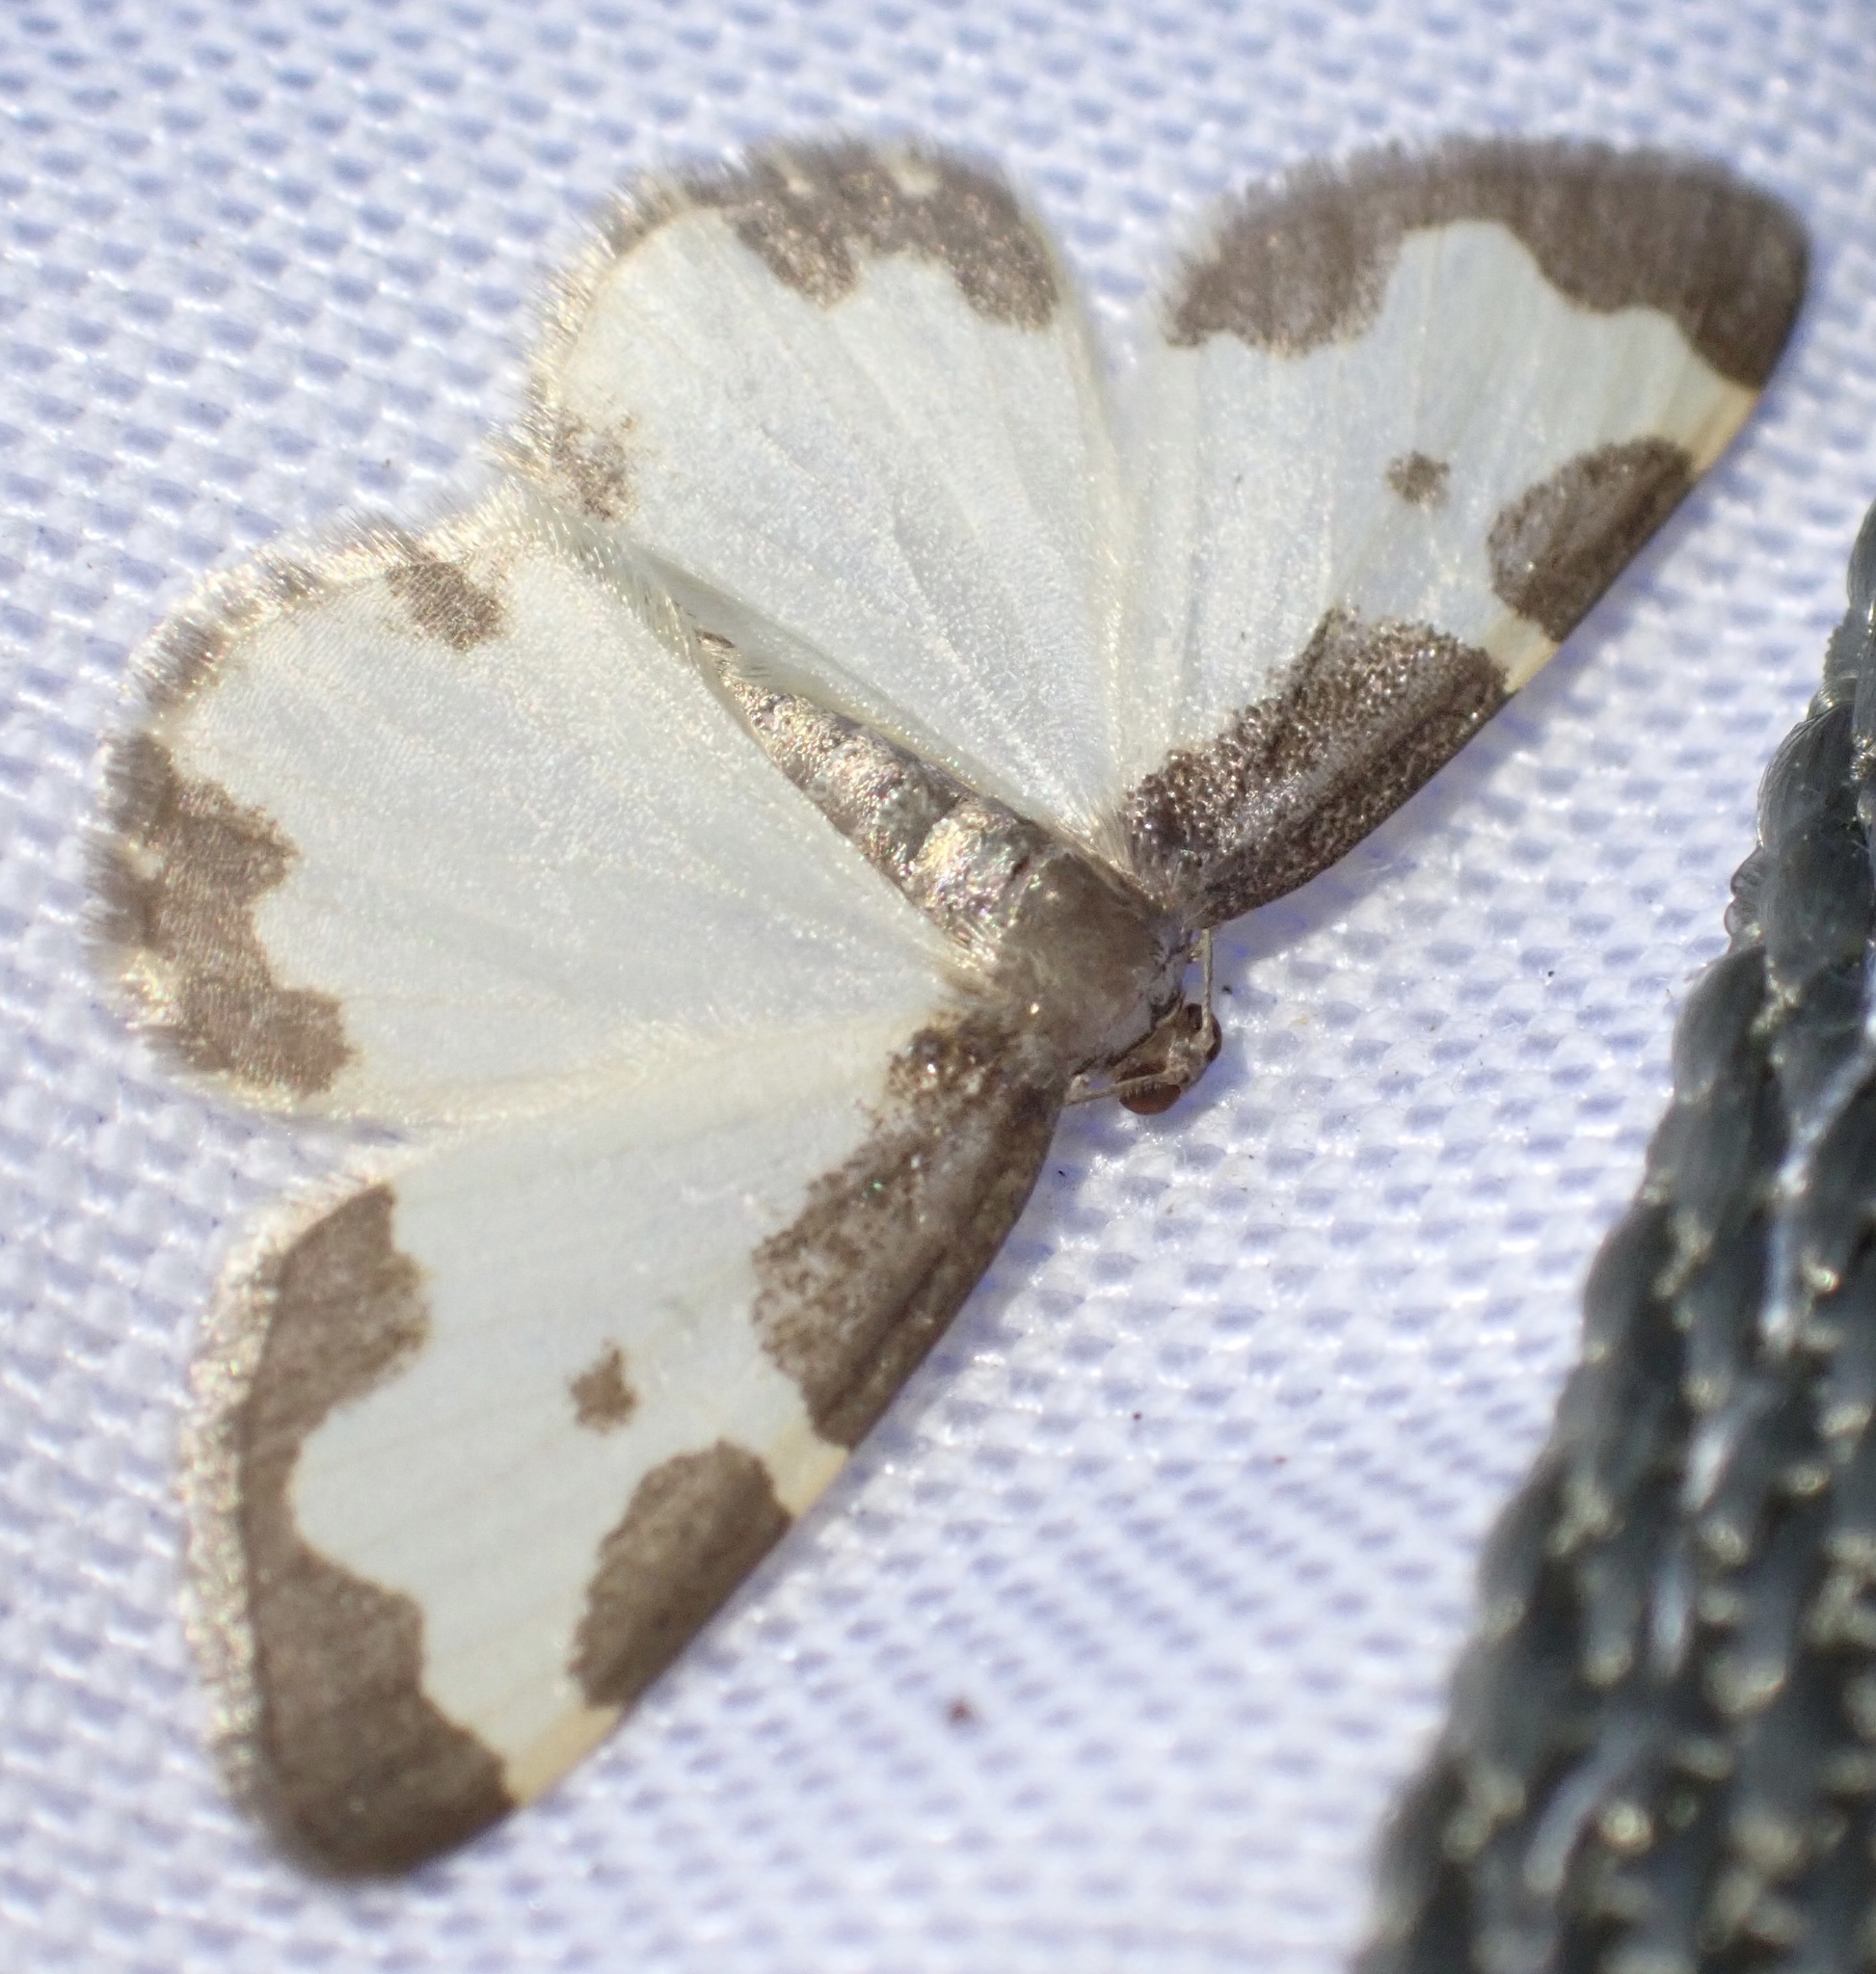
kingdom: Animalia
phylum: Arthropoda
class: Insecta
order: Lepidoptera
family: Geometridae
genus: Lomaspilis
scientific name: Lomaspilis marginata
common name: Clouded border
